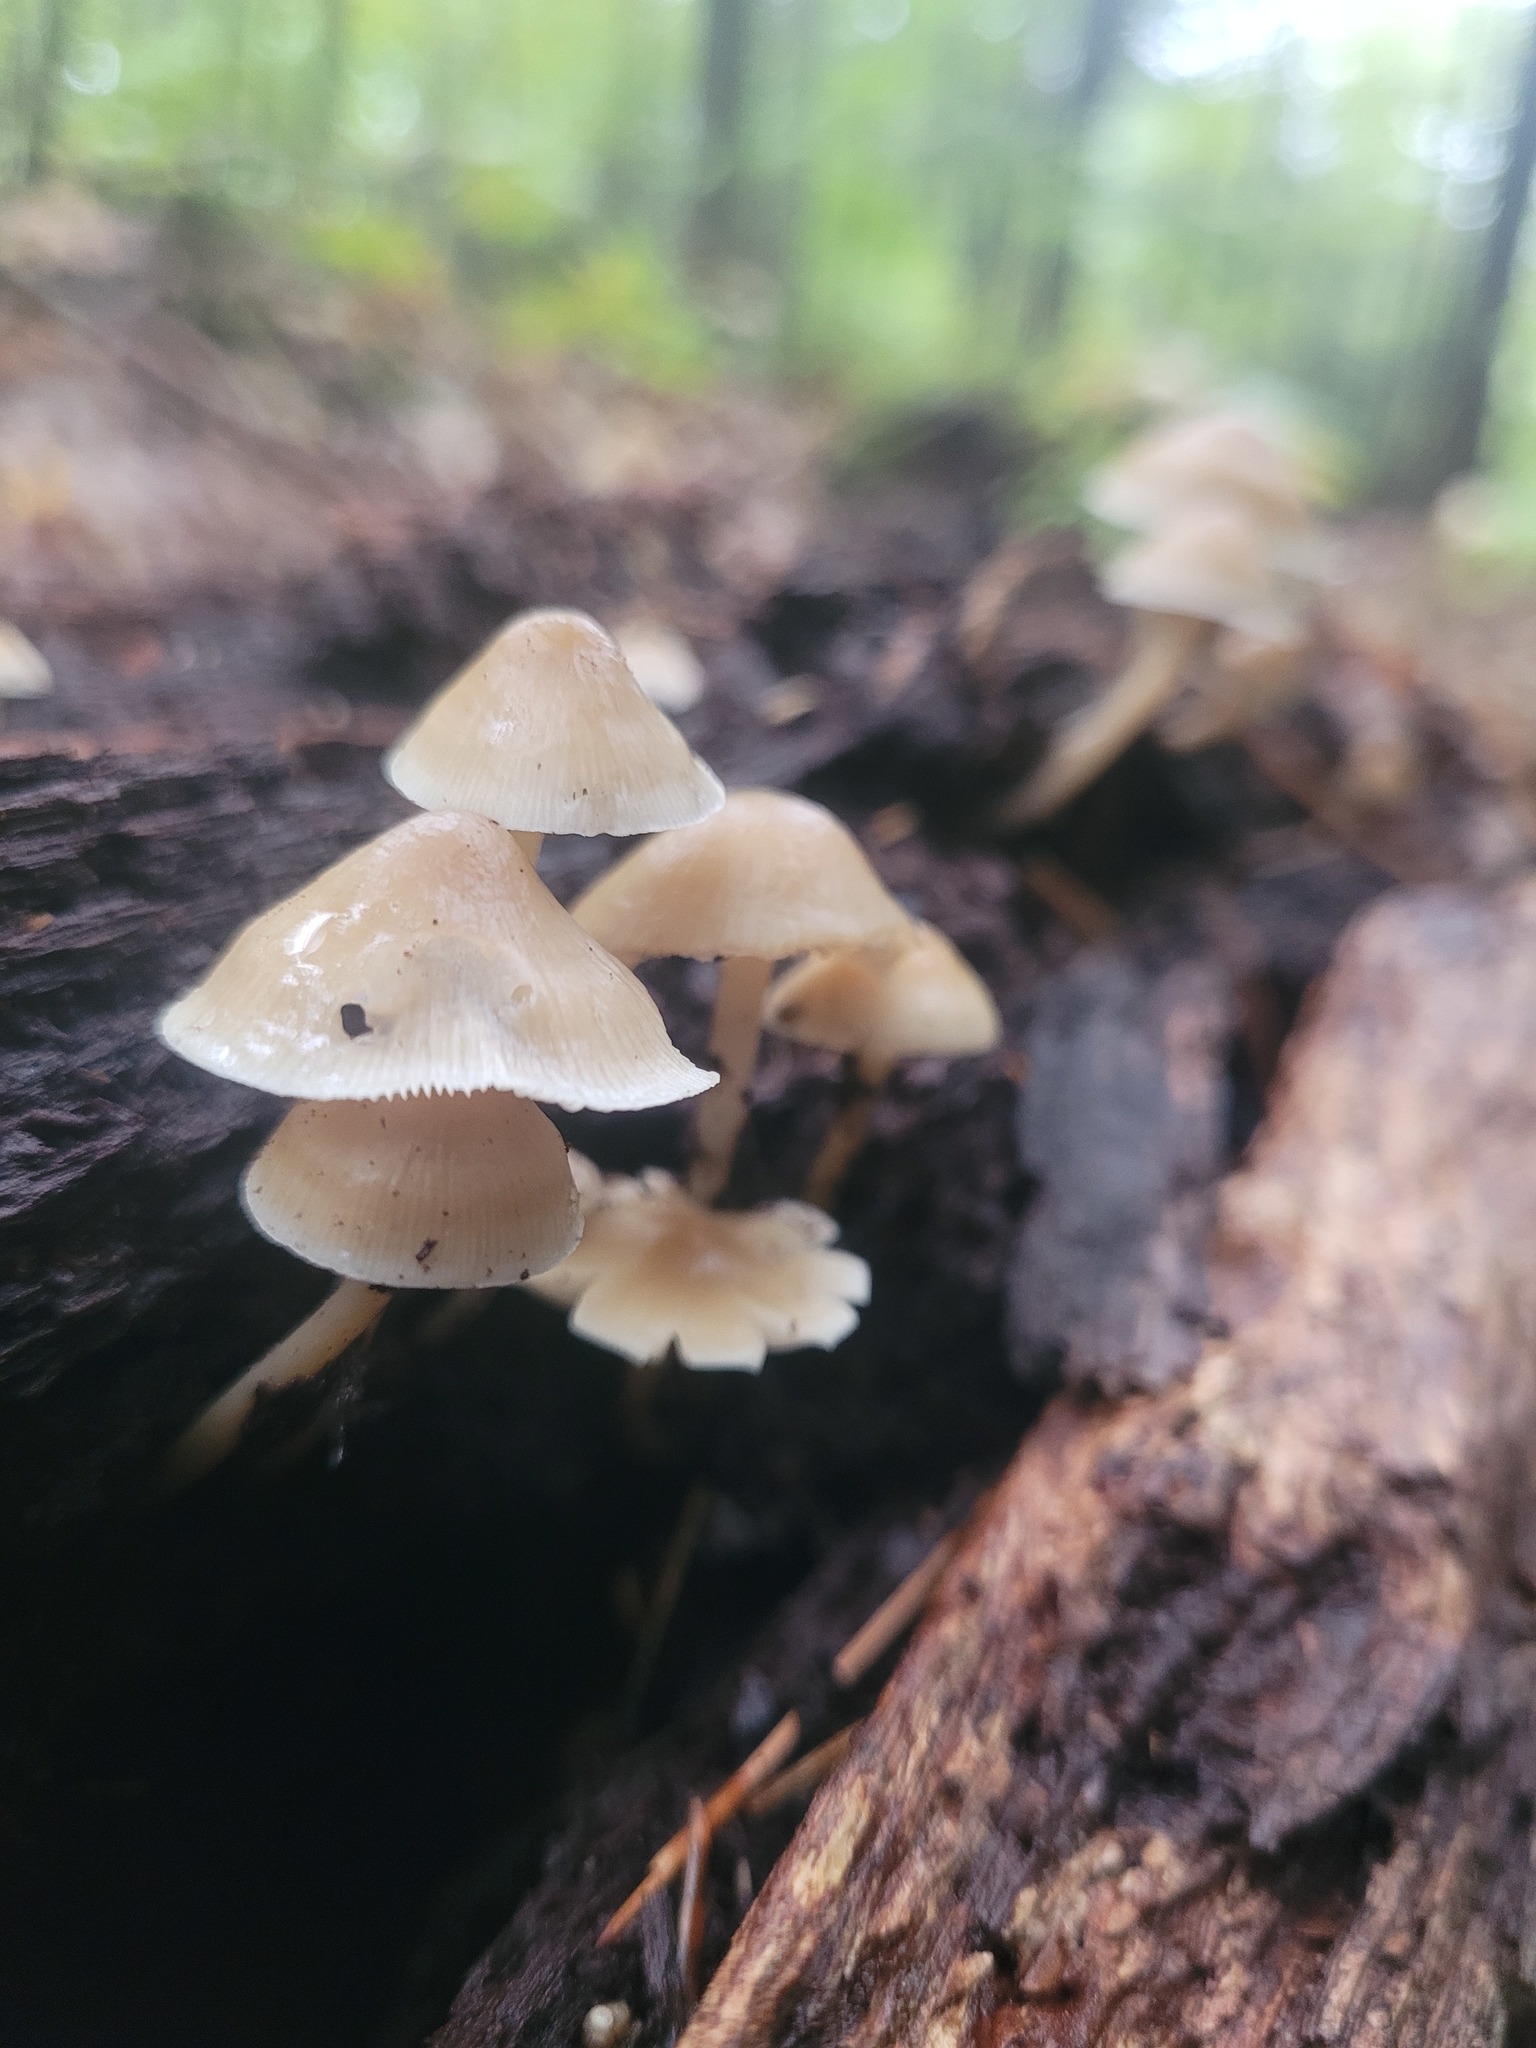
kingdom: Fungi
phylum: Basidiomycota
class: Agaricomycetes
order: Agaricales
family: Mycenaceae
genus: Mycena
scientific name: Mycena galericulata
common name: Bonnet mycena
